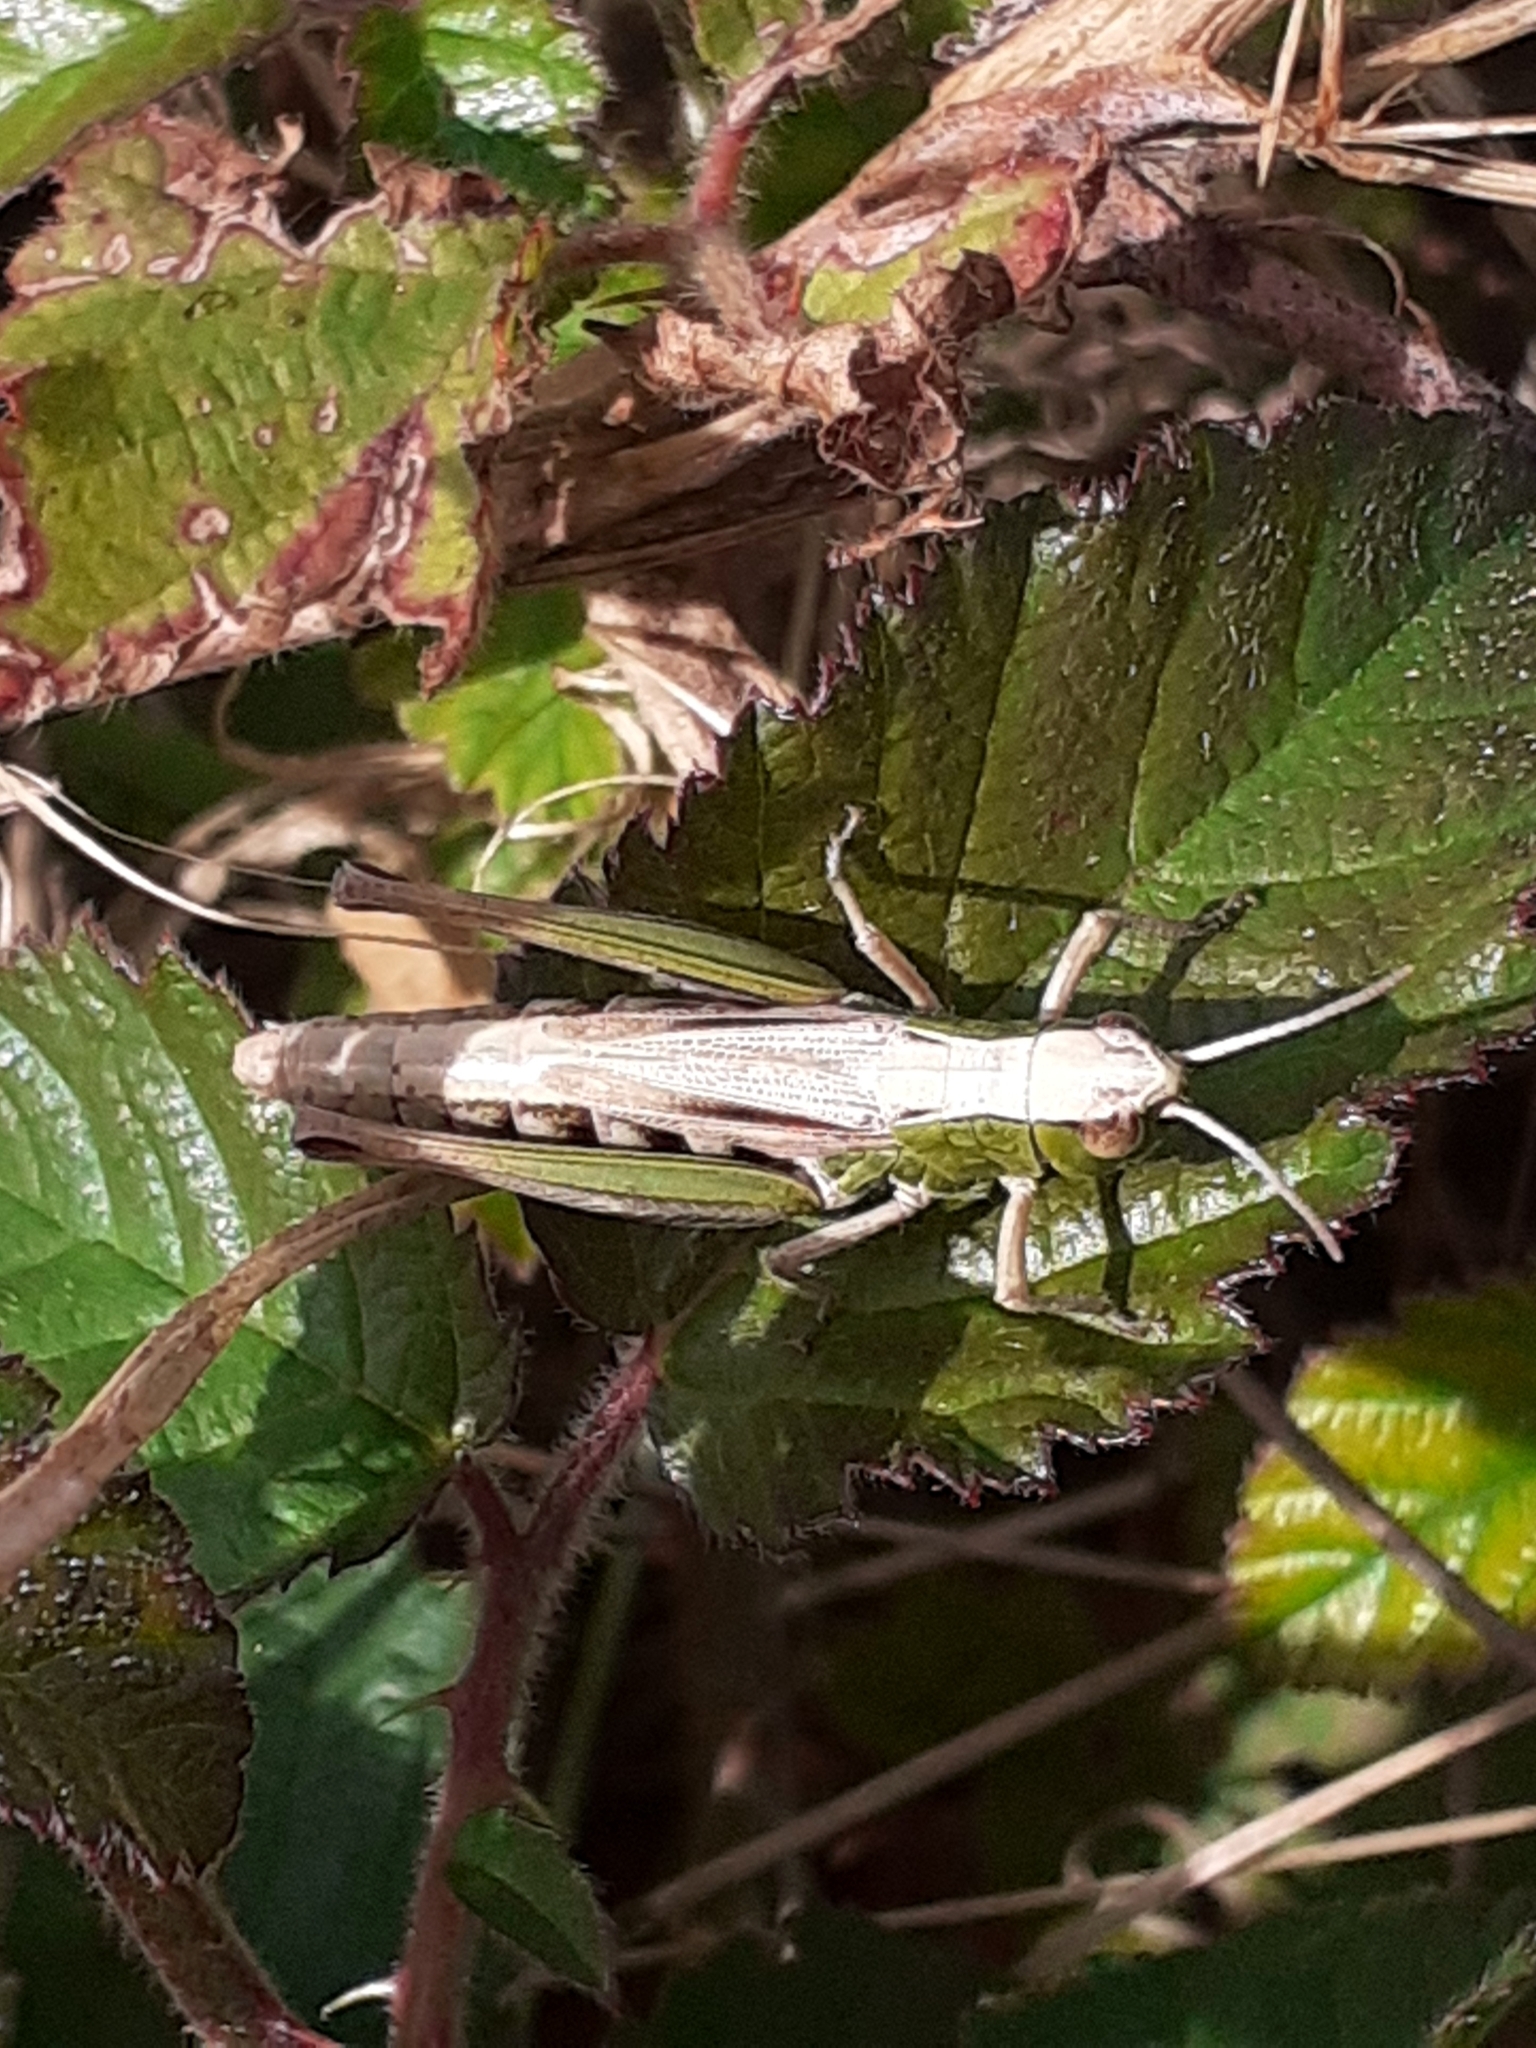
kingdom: Animalia
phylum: Arthropoda
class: Insecta
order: Orthoptera
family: Acrididae
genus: Pseudochorthippus
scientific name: Pseudochorthippus parallelus
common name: Meadow grasshopper
